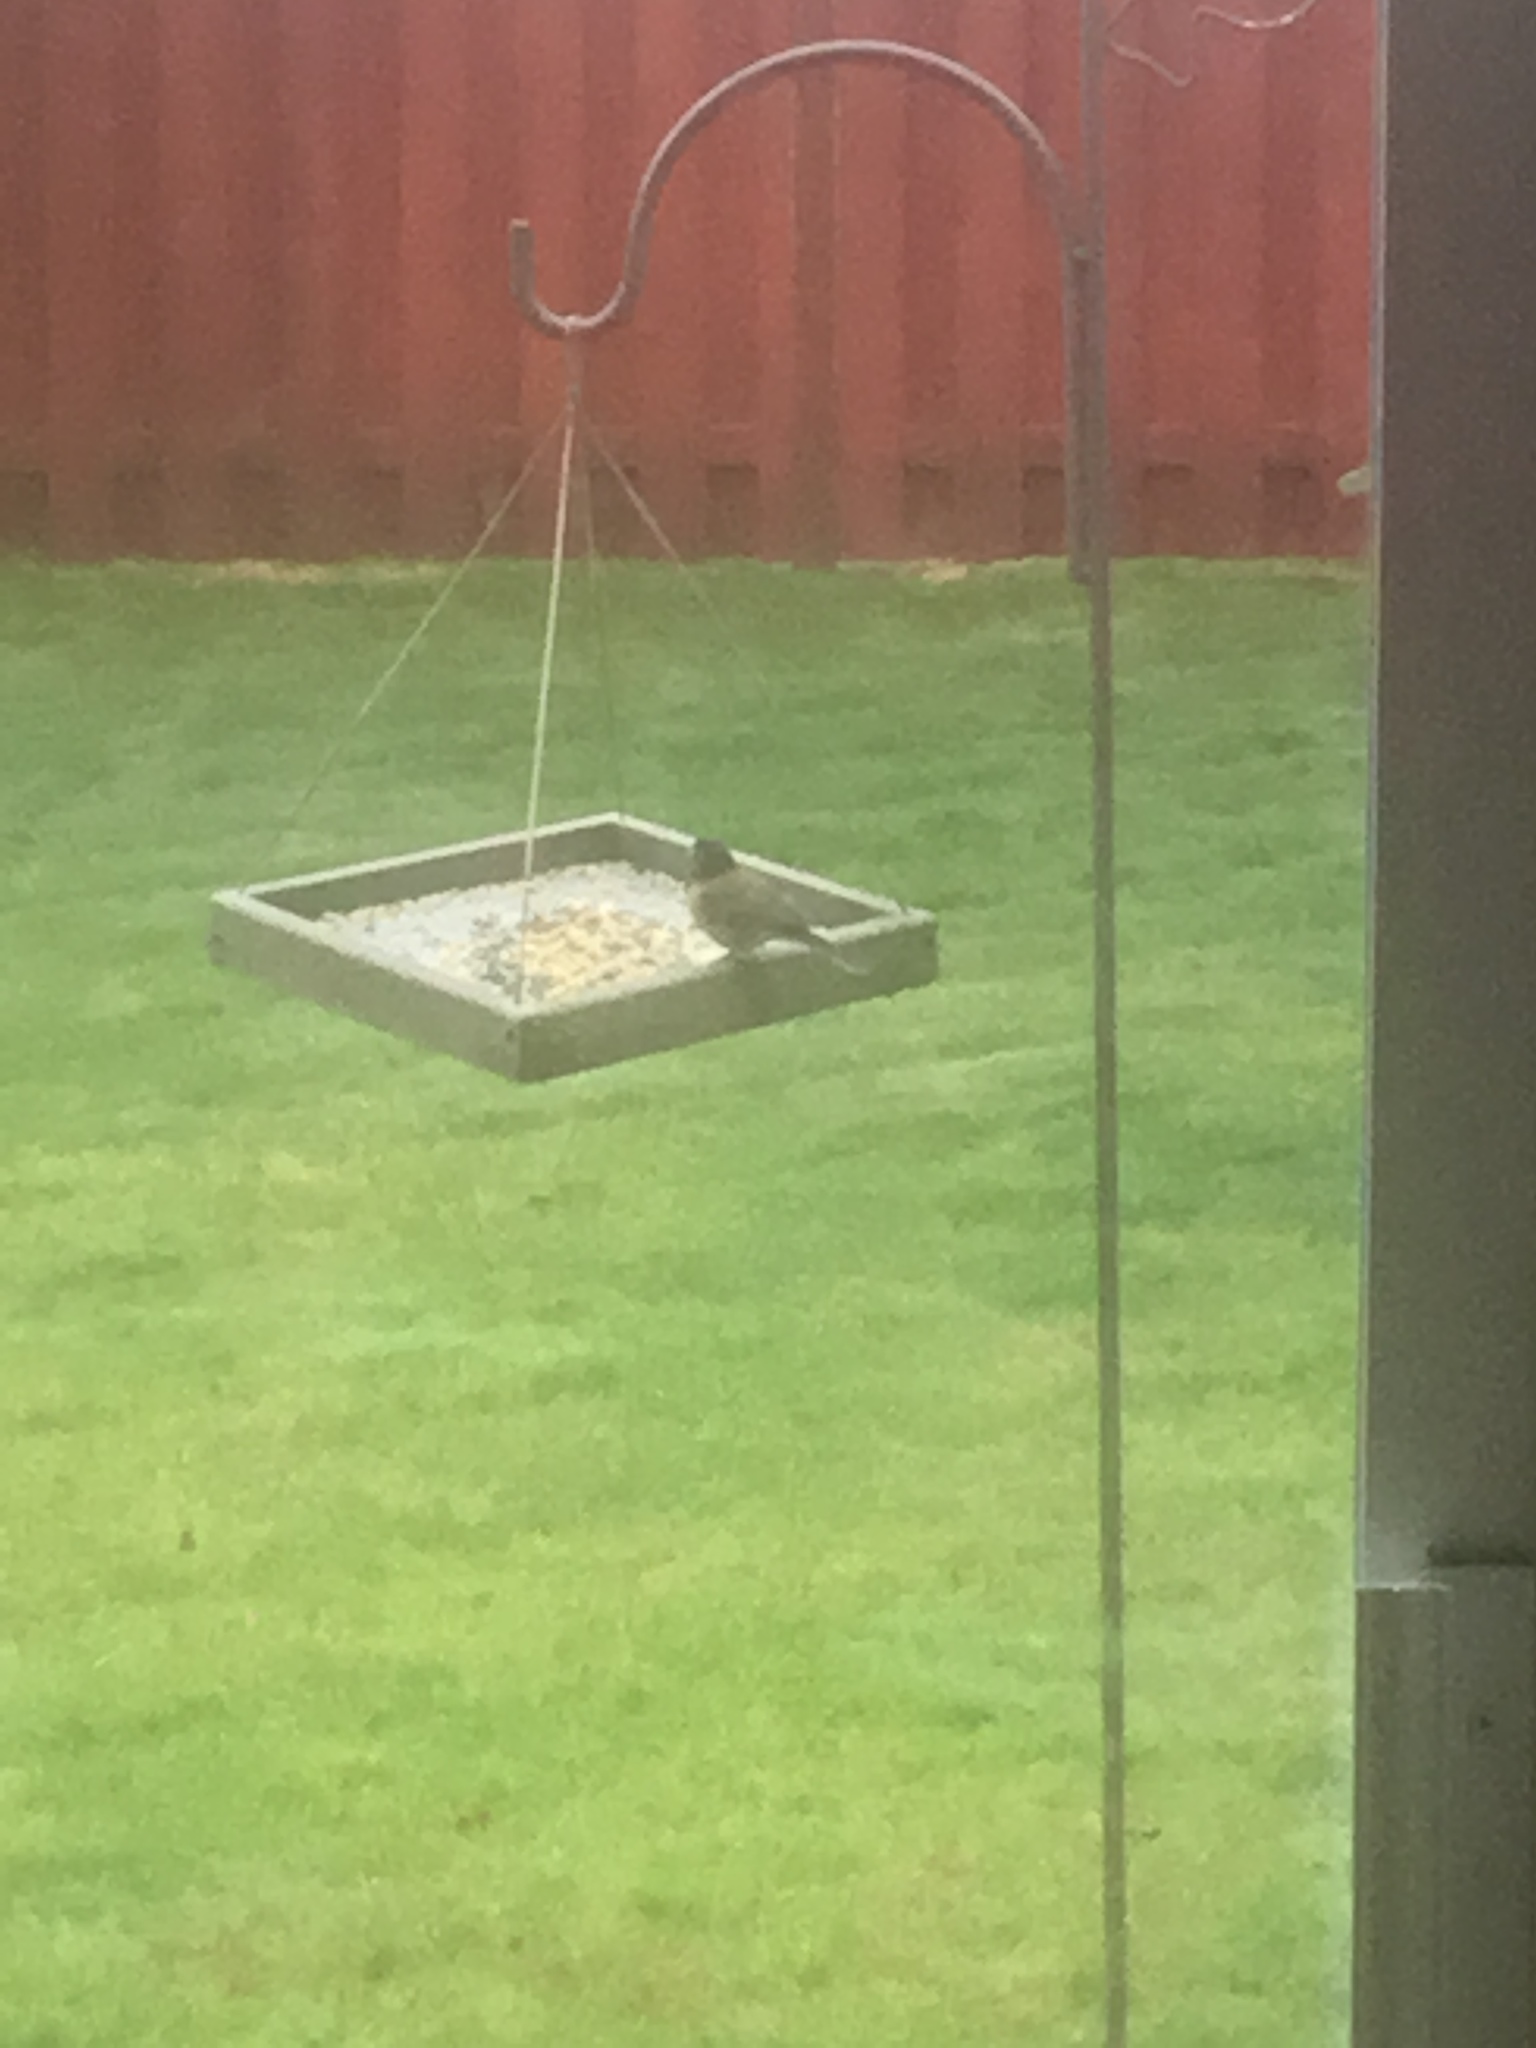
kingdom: Animalia
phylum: Chordata
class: Aves
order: Passeriformes
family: Passerellidae
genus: Junco
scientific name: Junco hyemalis
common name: Dark-eyed junco
